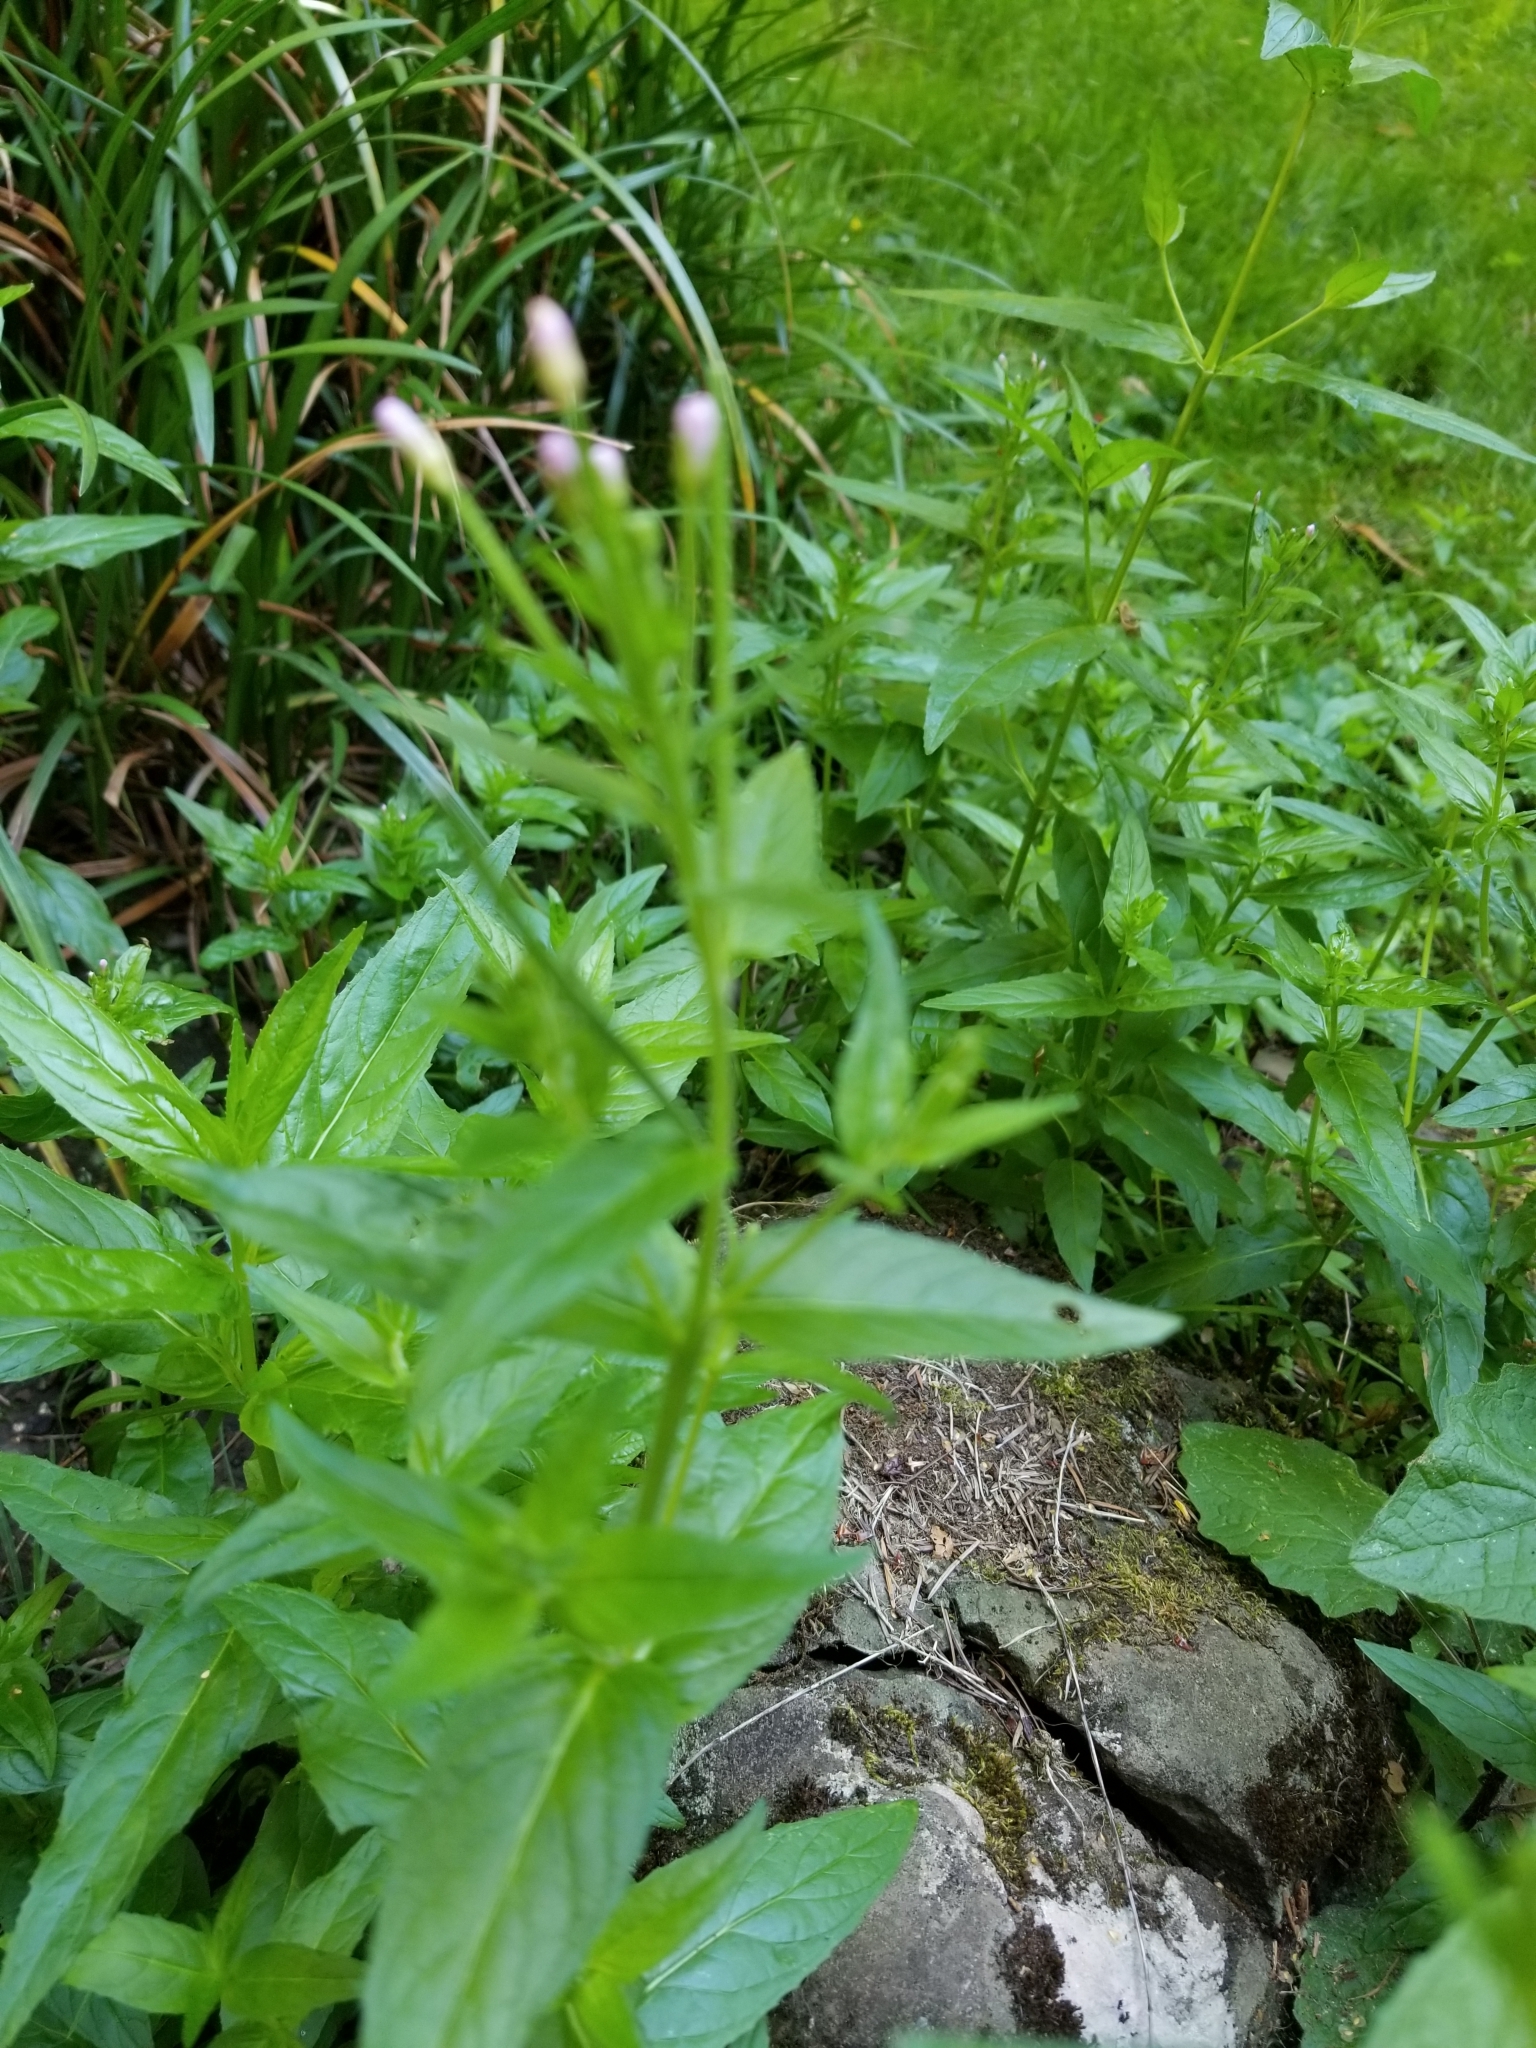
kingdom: Plantae
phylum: Tracheophyta
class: Magnoliopsida
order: Myrtales
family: Onagraceae
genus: Epilobium
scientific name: Epilobium ciliatum
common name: American willowherb
